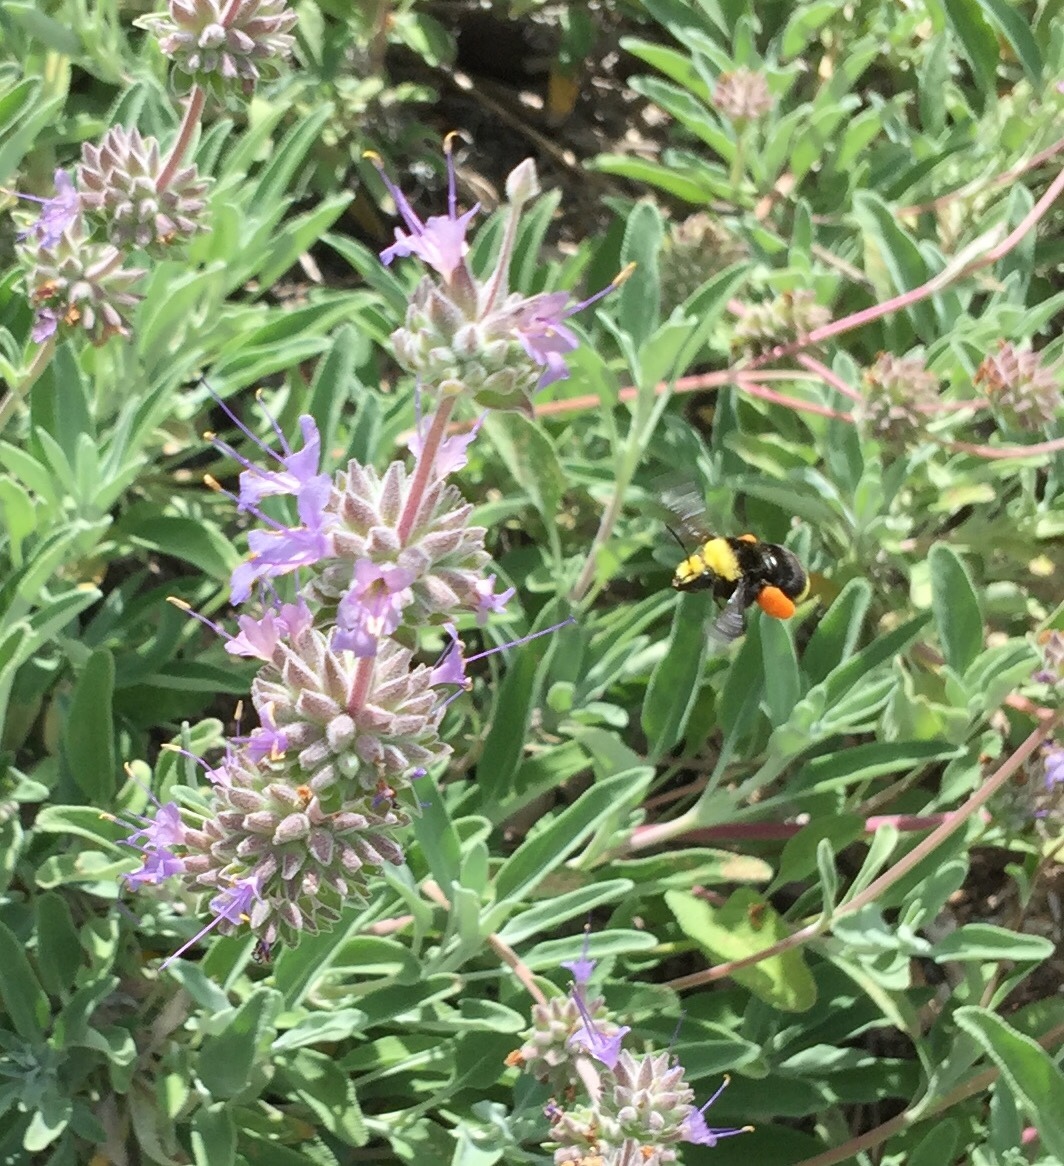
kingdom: Animalia
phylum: Arthropoda
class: Insecta
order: Hymenoptera
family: Apidae
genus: Bombus
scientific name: Bombus vosnesenskii
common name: Vosnesensky bumble bee
